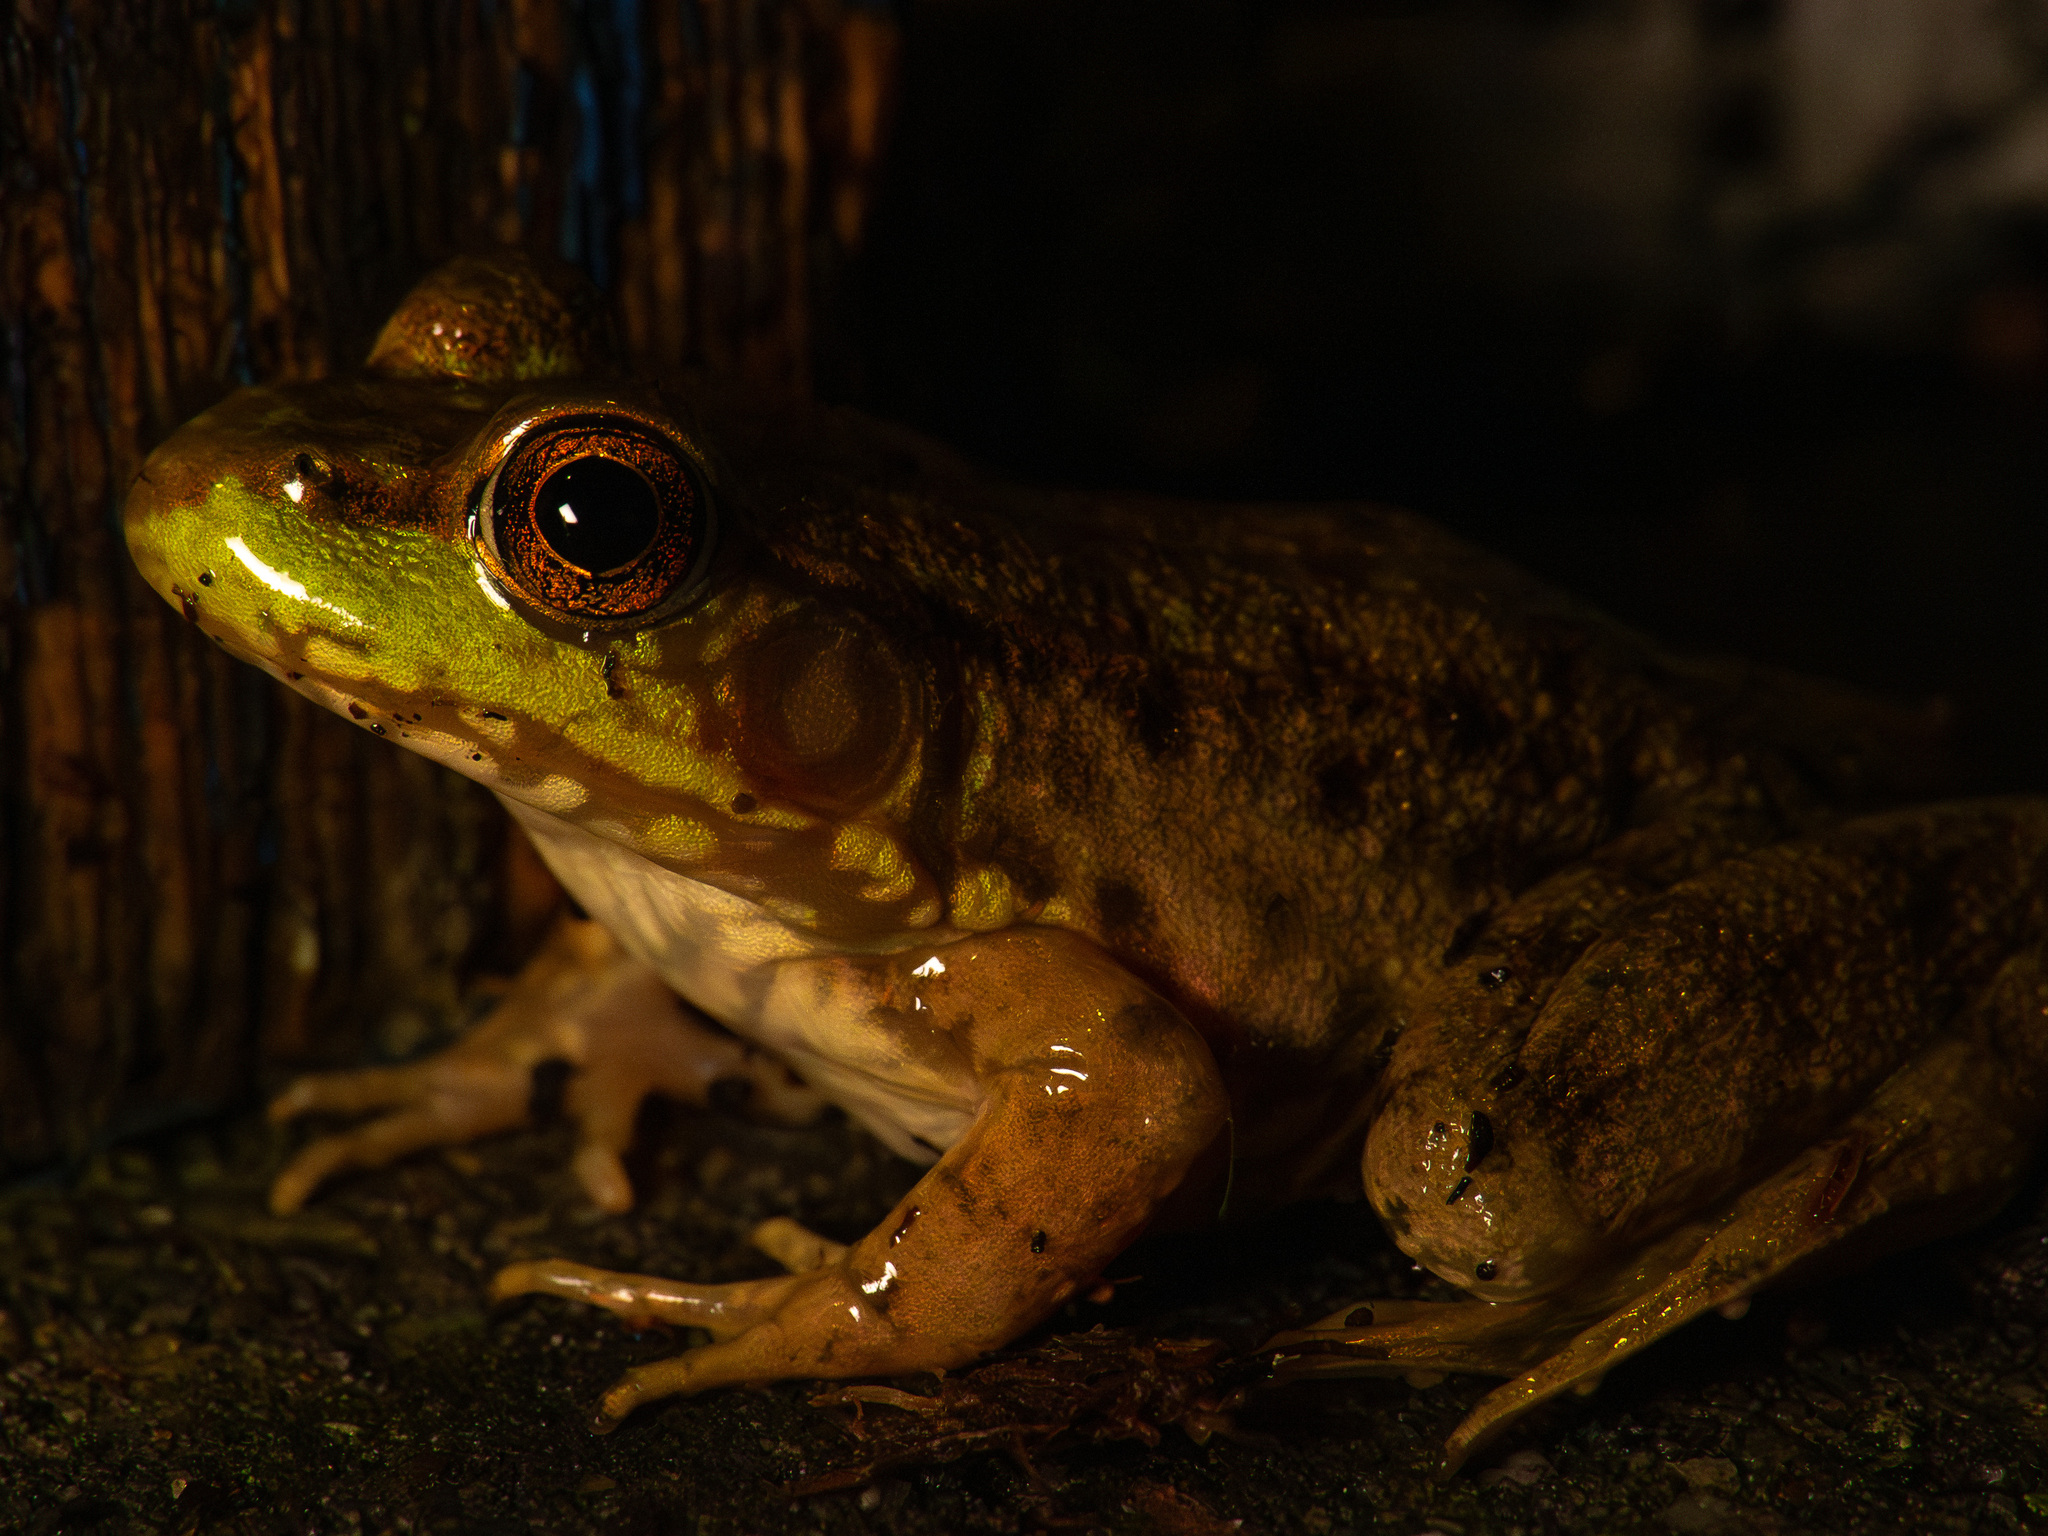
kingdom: Animalia
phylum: Chordata
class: Amphibia
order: Anura
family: Ranidae
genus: Lithobates
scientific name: Lithobates clamitans
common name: Green frog
